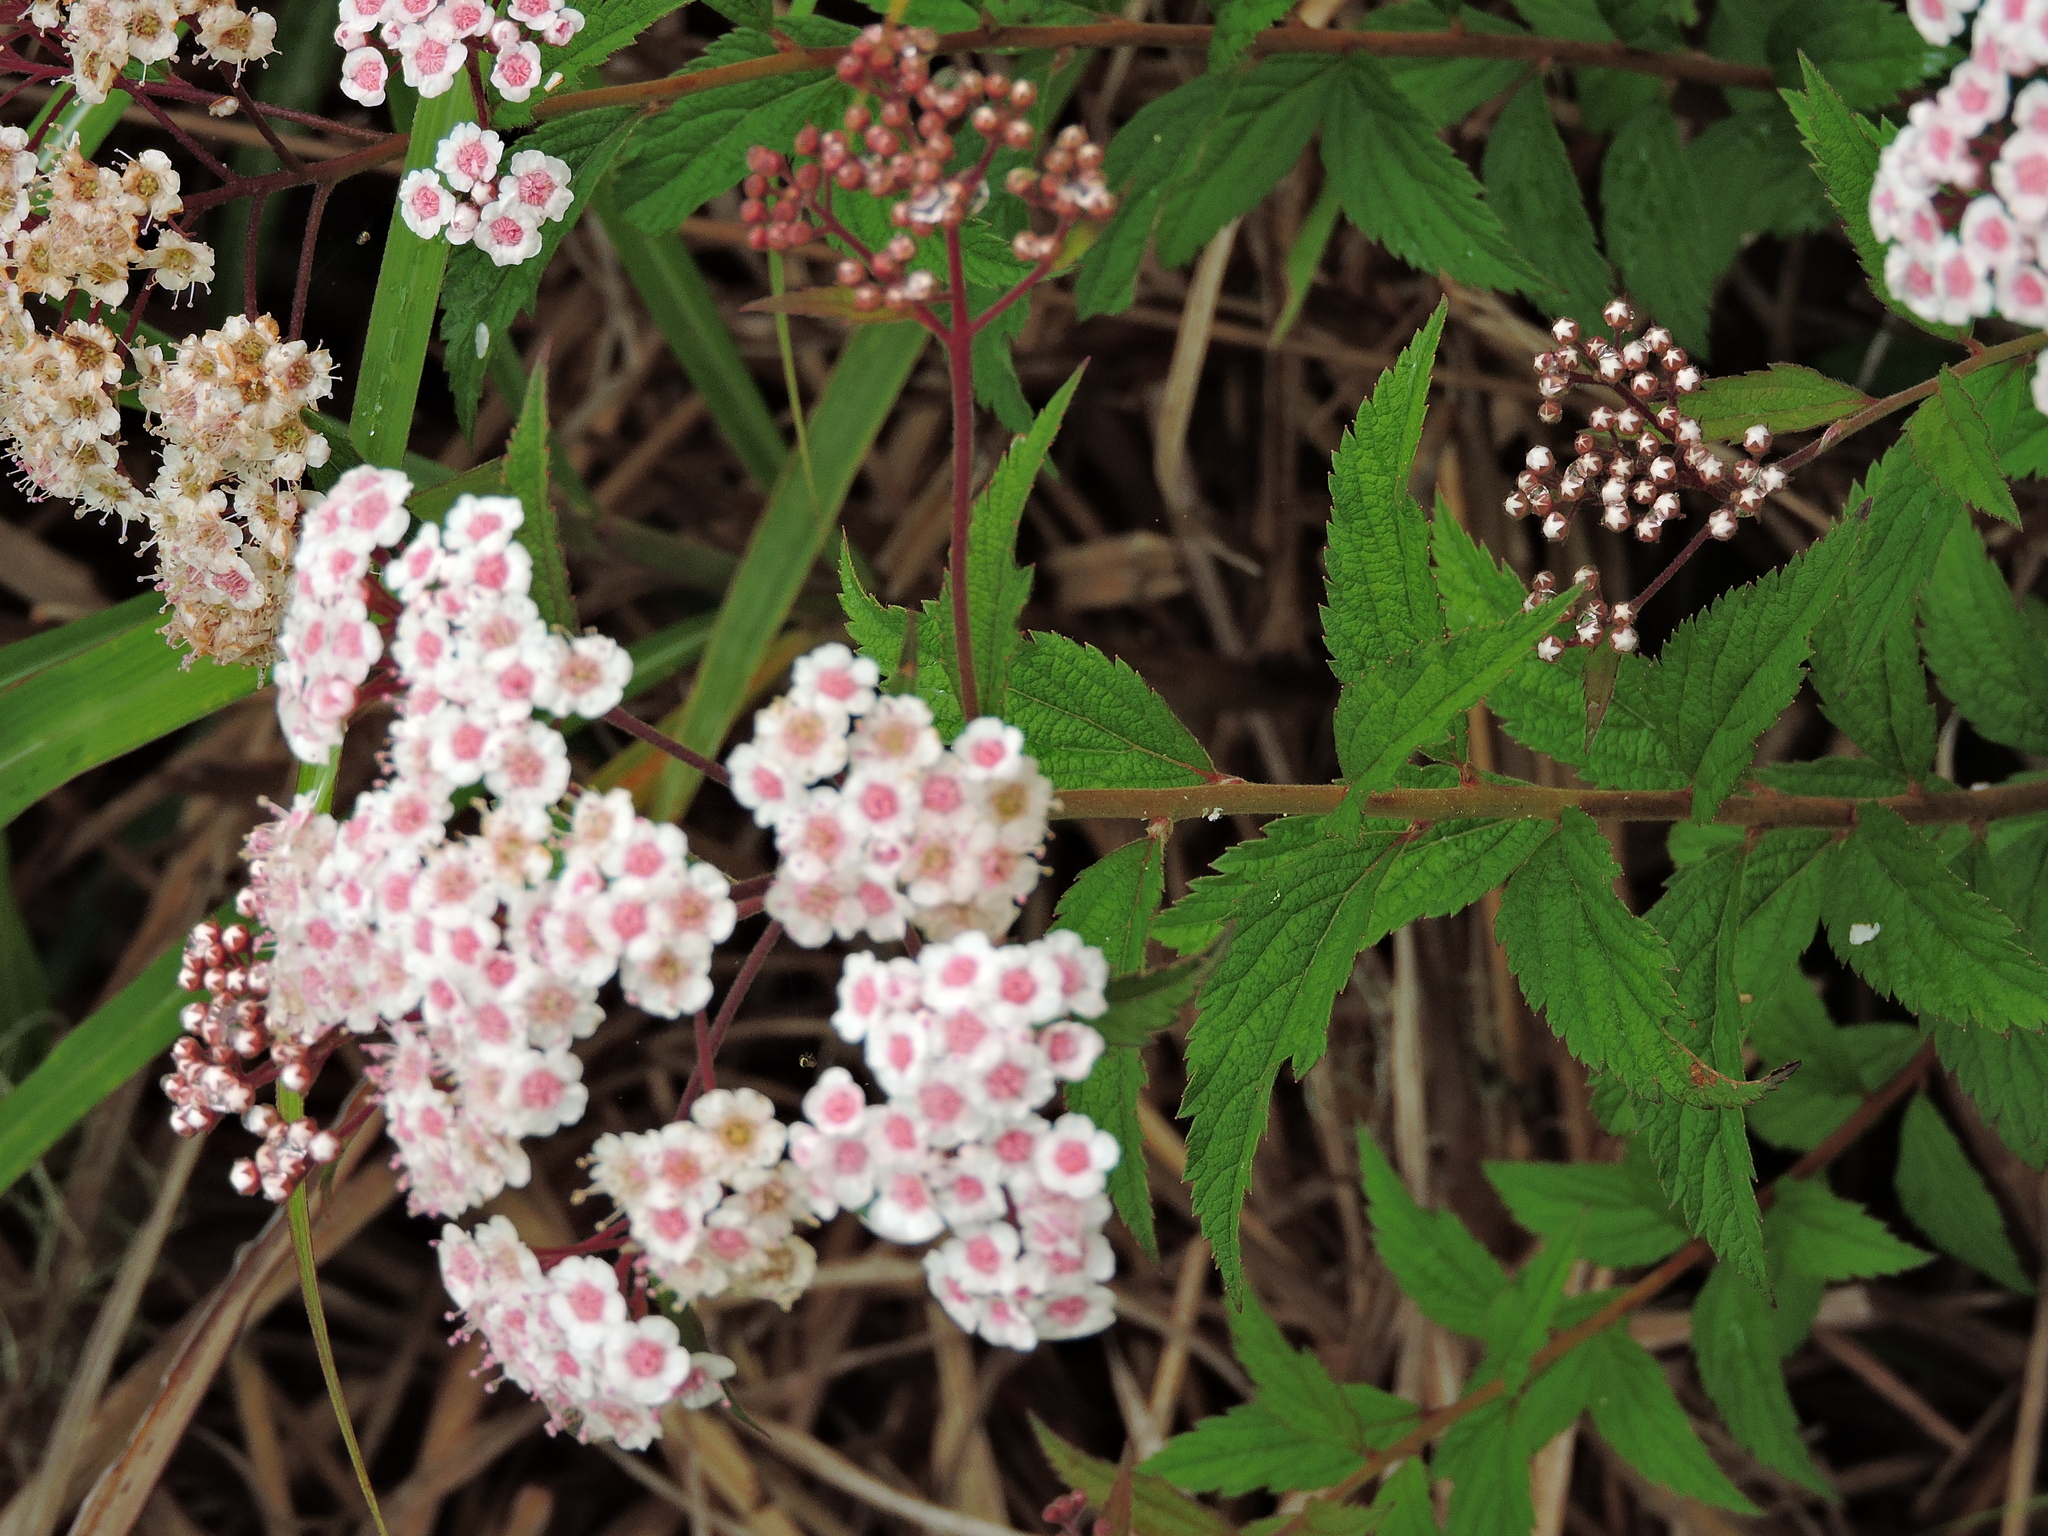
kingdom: Plantae
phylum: Tracheophyta
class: Magnoliopsida
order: Rosales
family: Rosaceae
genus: Spiraea
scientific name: Spiraea japonica
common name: Japanese spiraea
